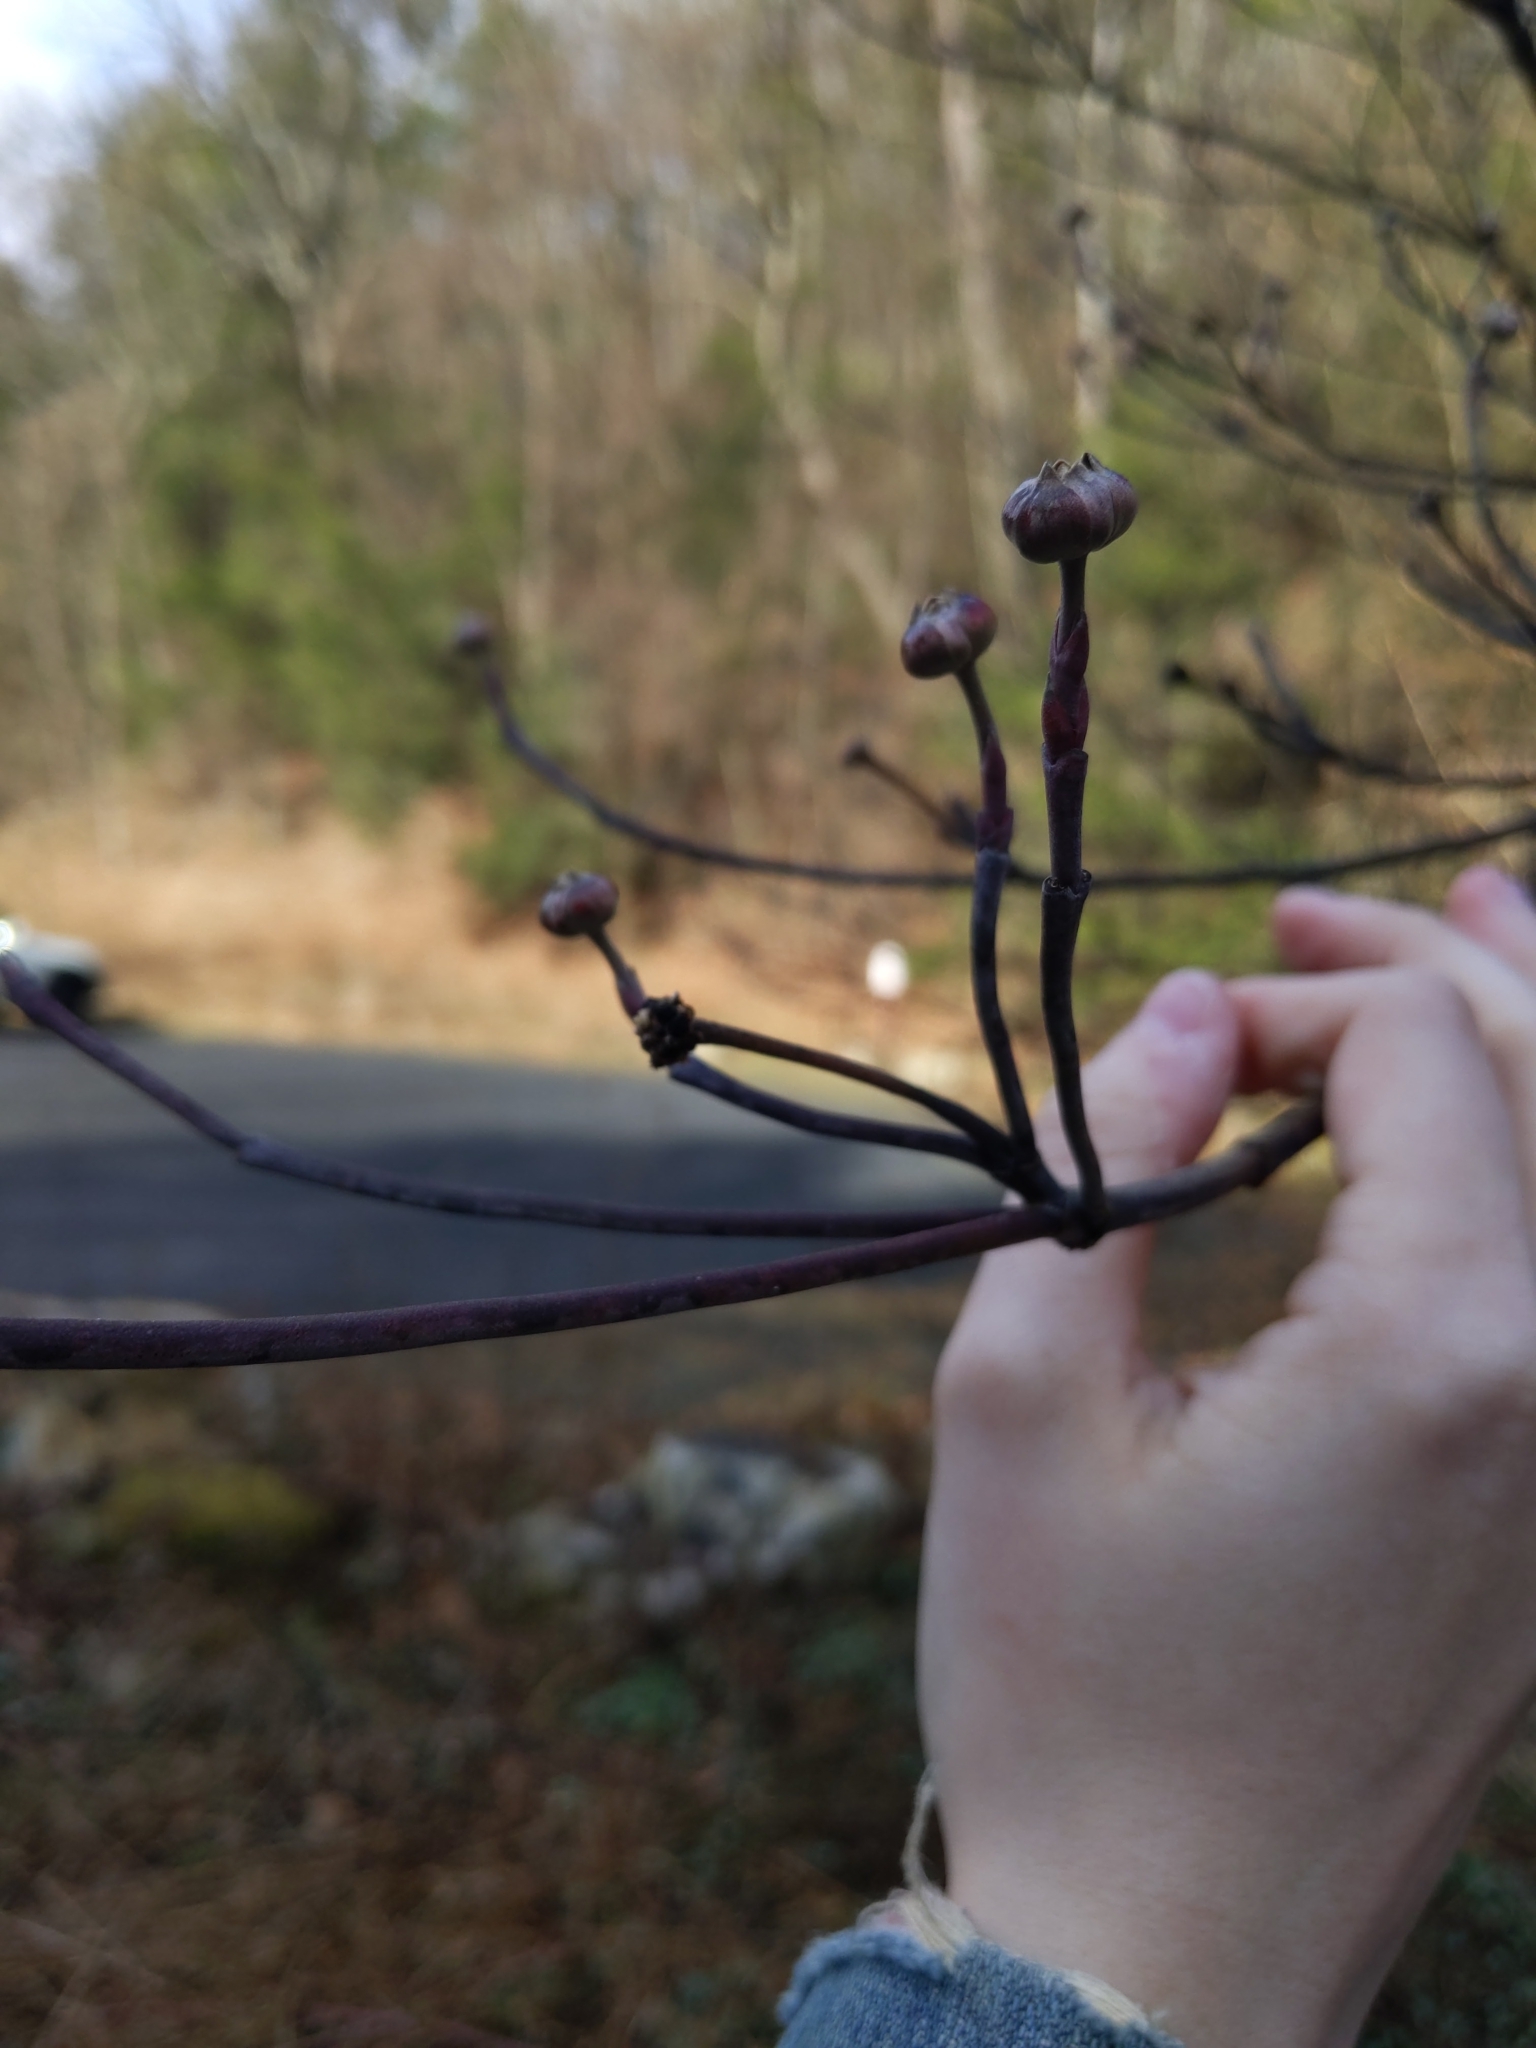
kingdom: Plantae
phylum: Tracheophyta
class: Magnoliopsida
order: Cornales
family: Cornaceae
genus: Cornus
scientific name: Cornus florida
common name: Flowering dogwood
